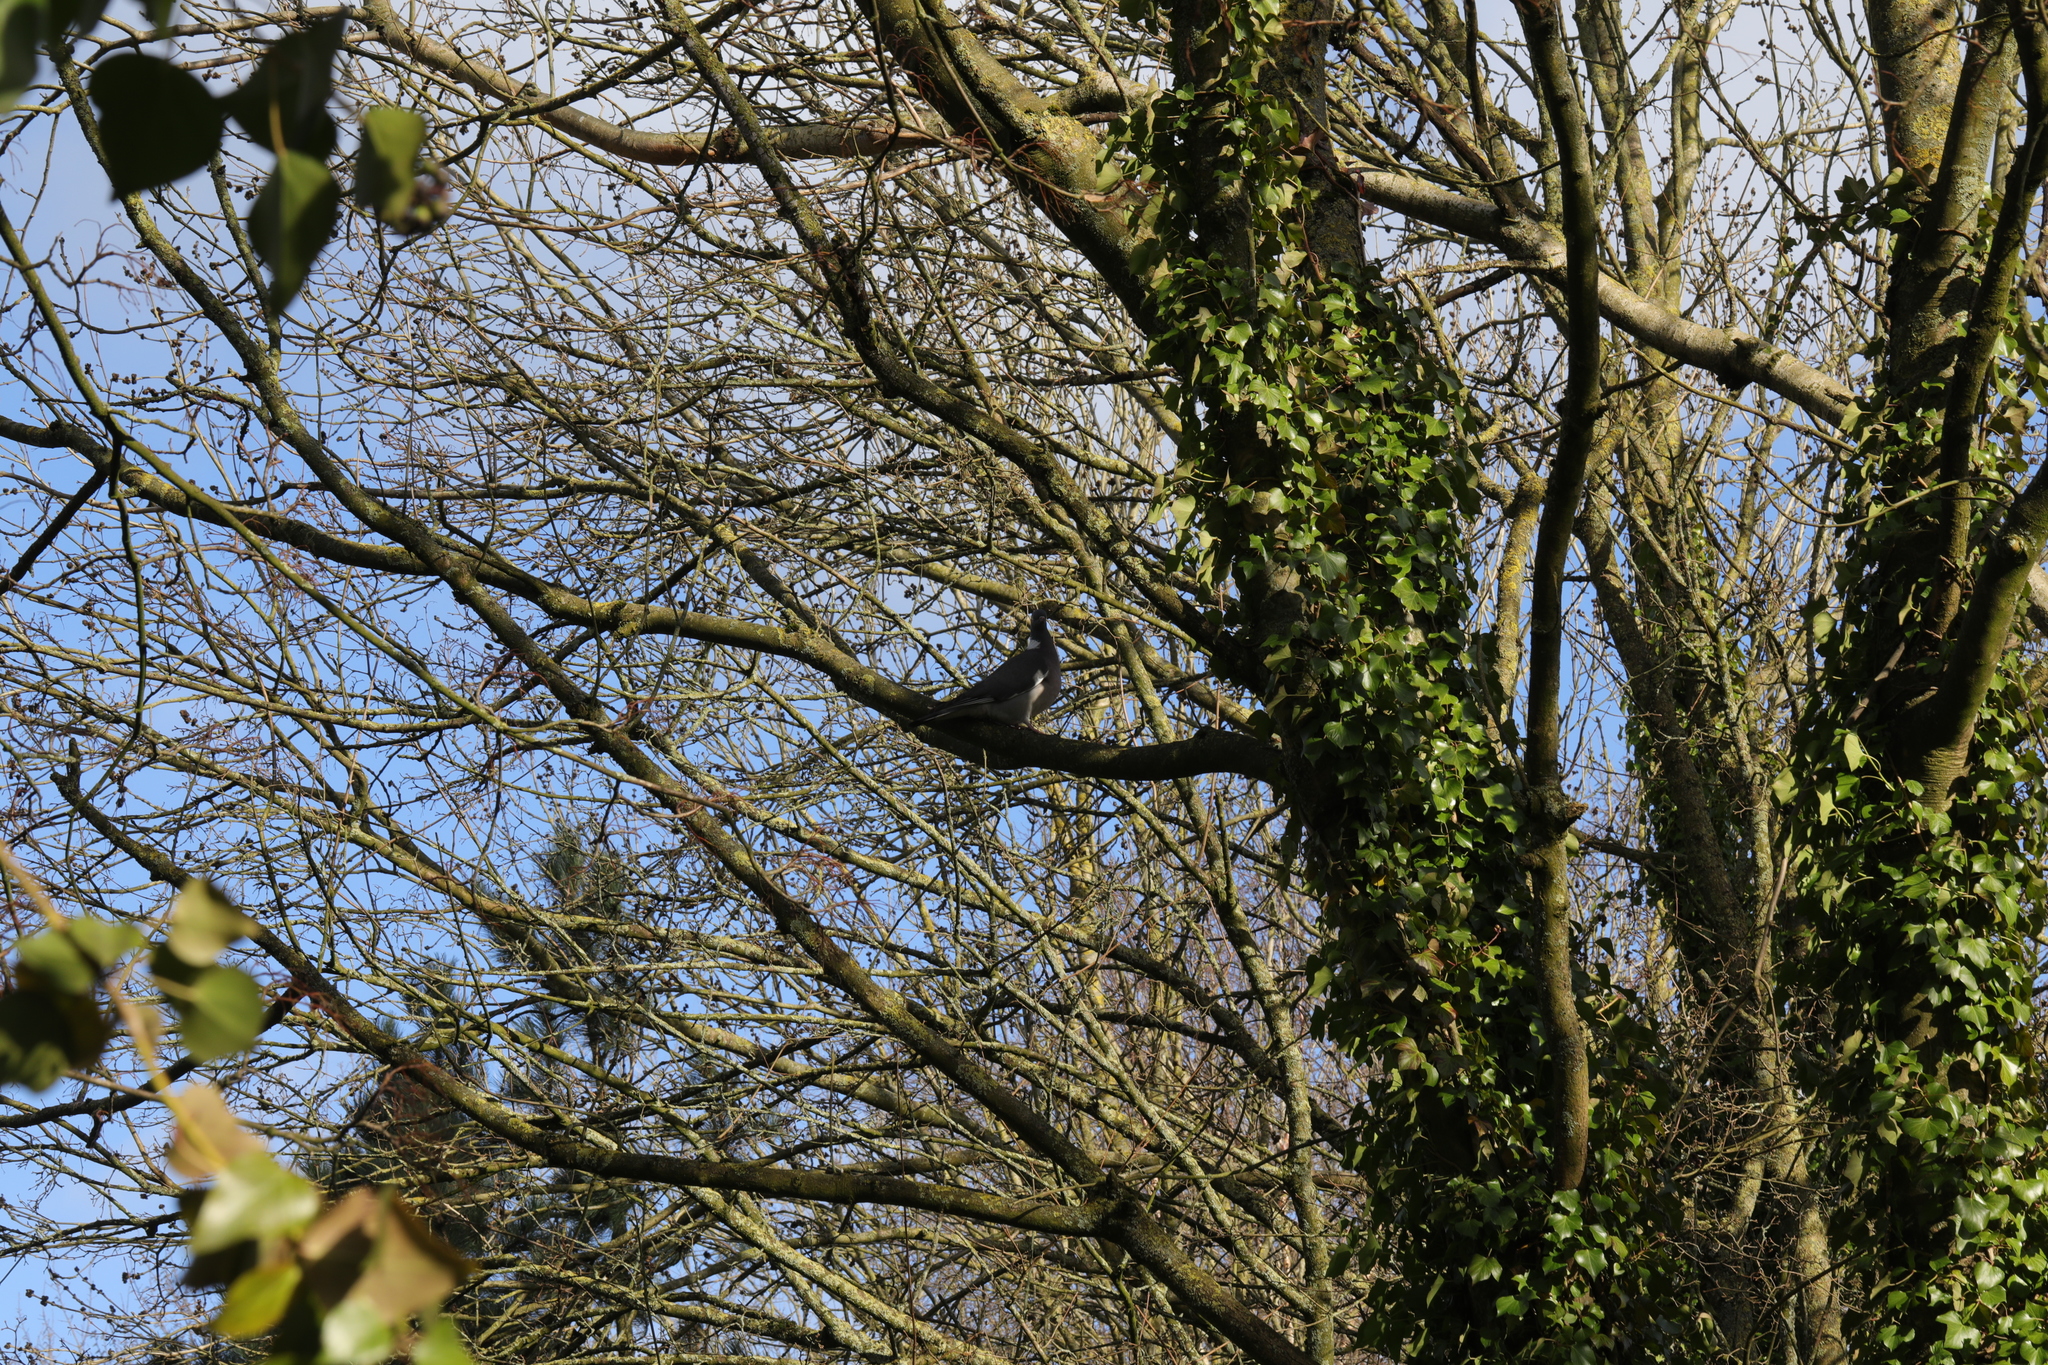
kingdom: Animalia
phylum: Chordata
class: Aves
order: Columbiformes
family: Columbidae
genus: Columba
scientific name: Columba palumbus
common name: Common wood pigeon
